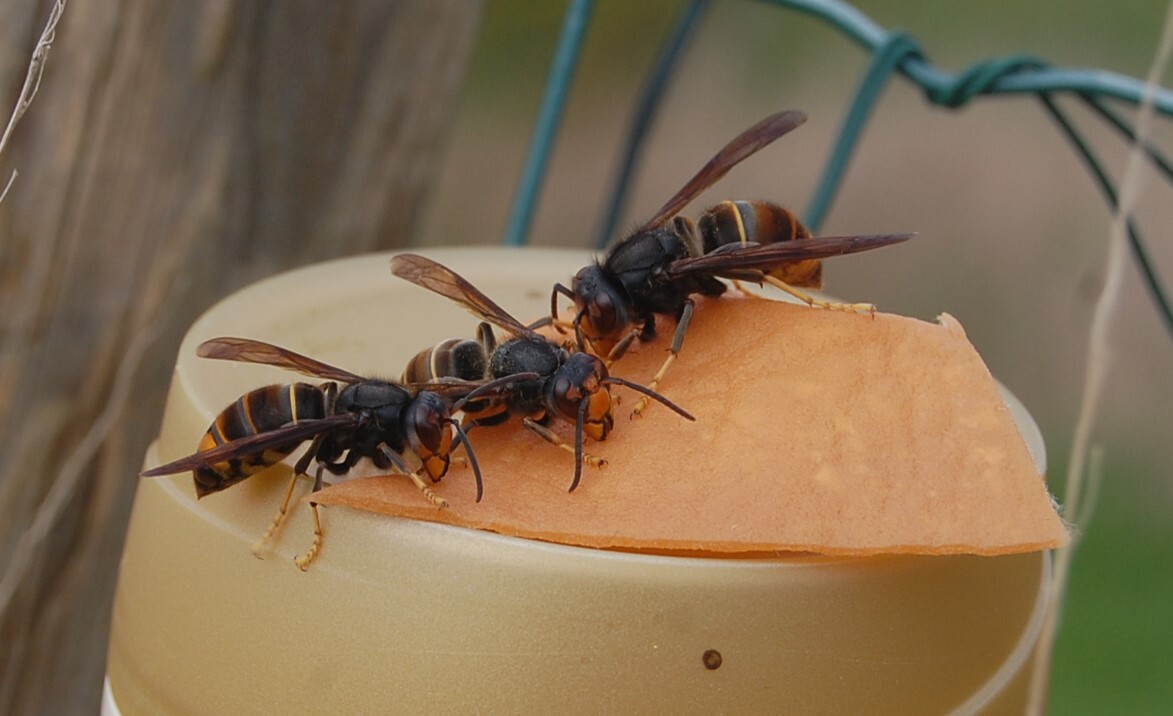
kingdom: Animalia
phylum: Arthropoda
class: Insecta
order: Hymenoptera
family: Vespidae
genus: Vespa
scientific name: Vespa velutina
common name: Asian hornet
